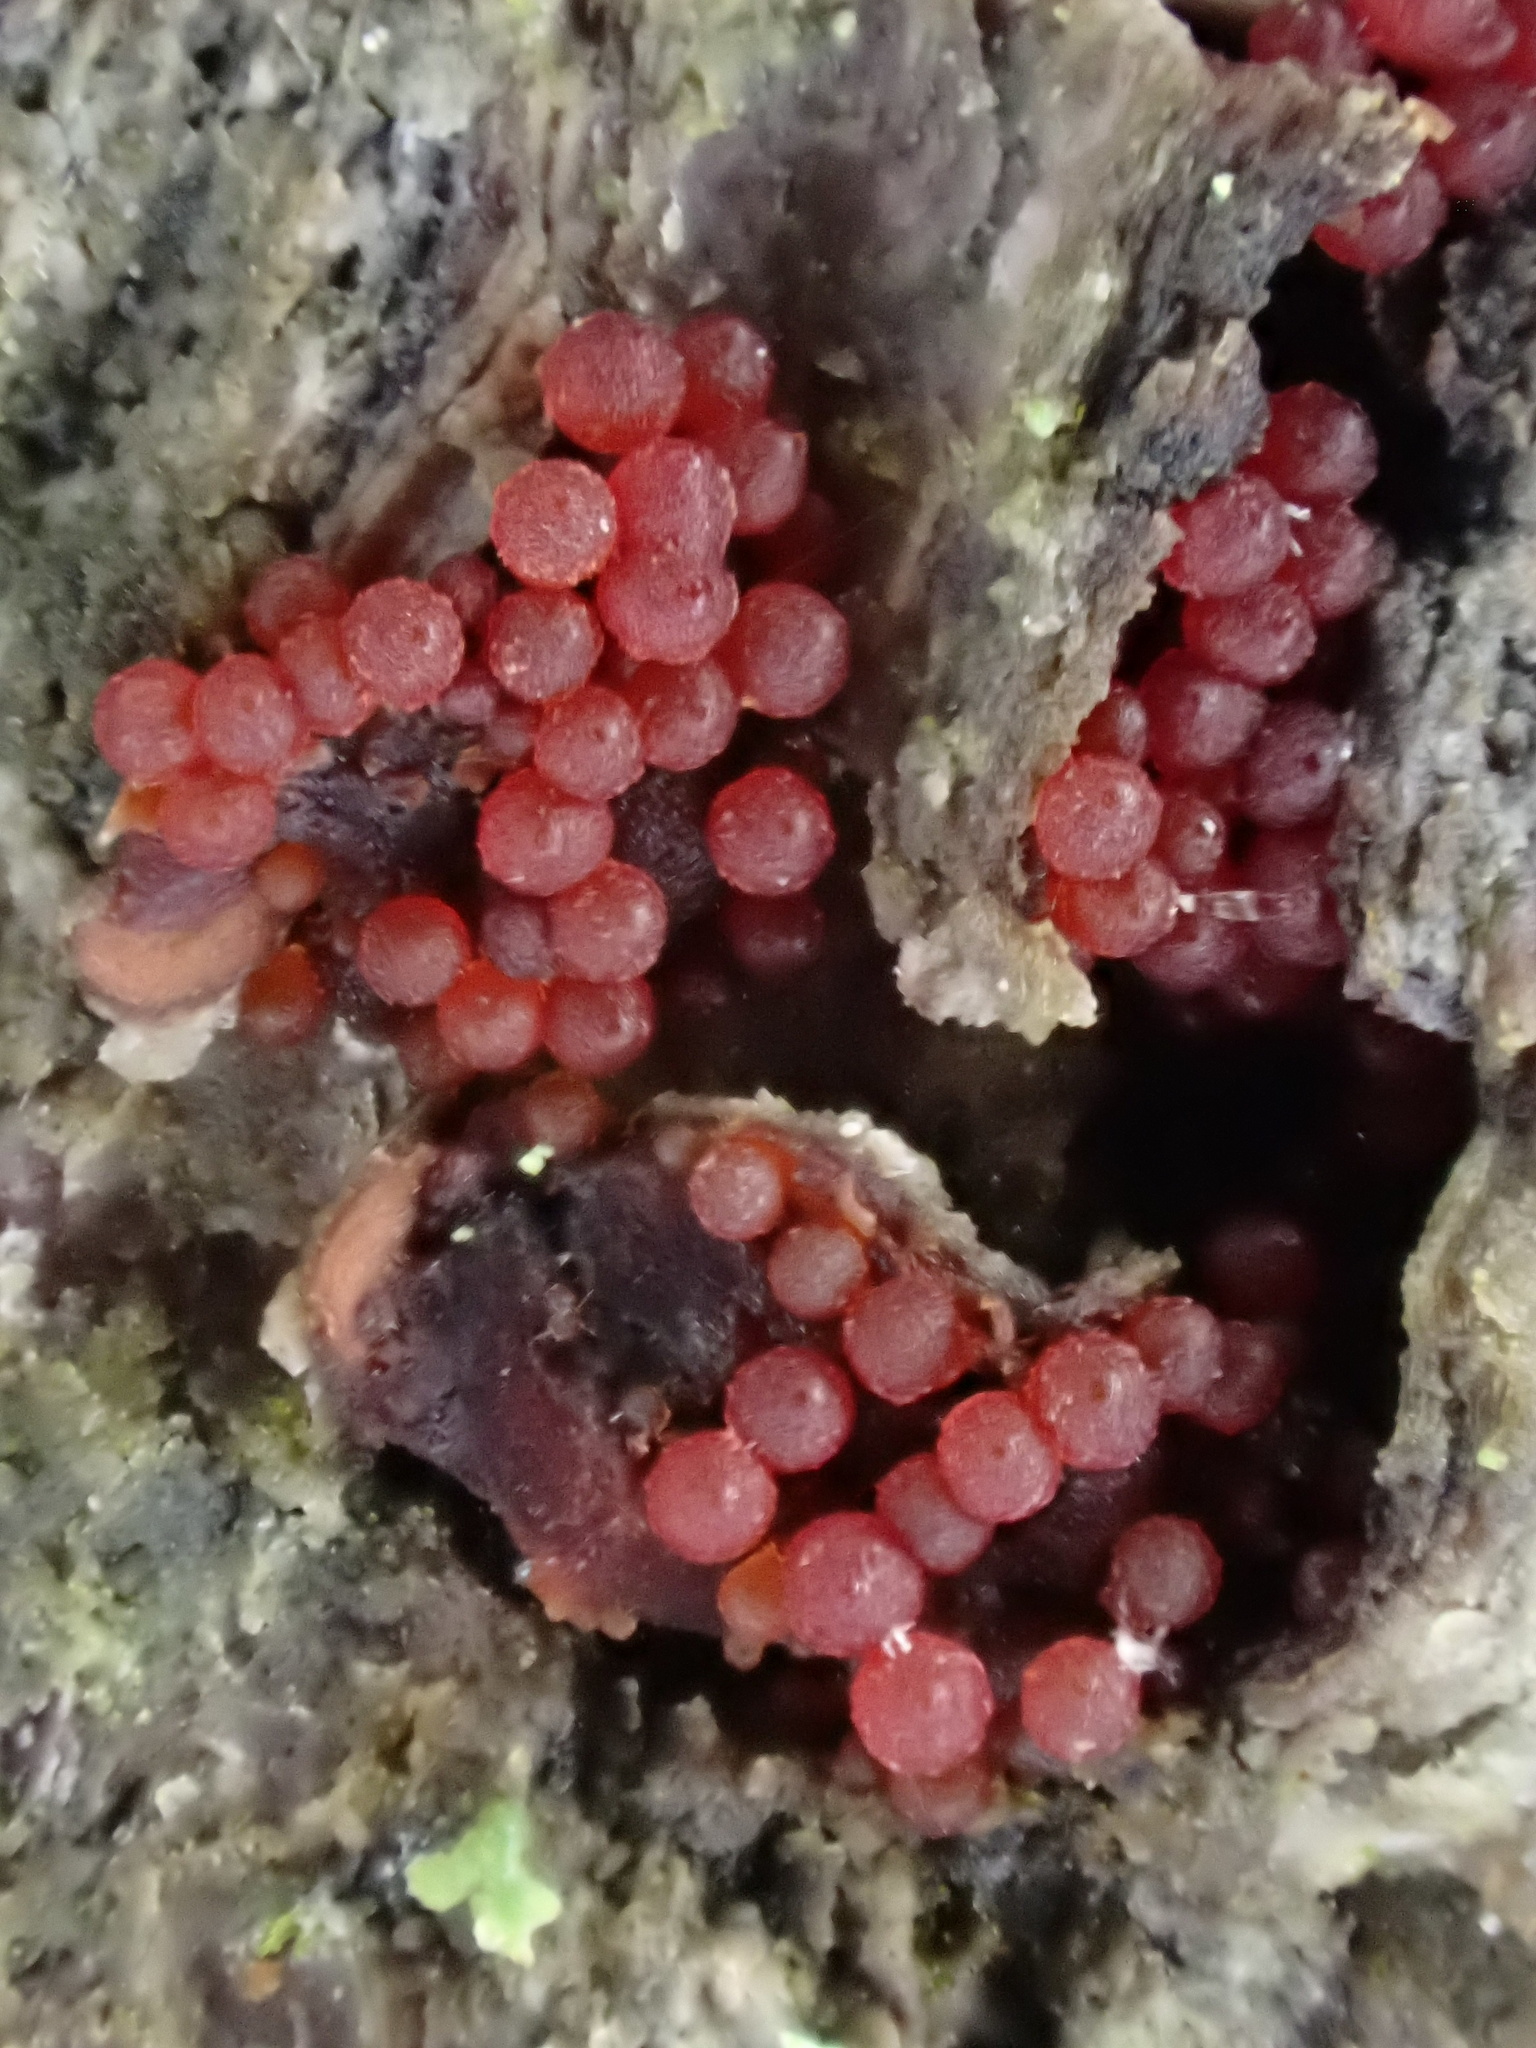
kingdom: Fungi
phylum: Ascomycota
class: Sordariomycetes
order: Hypocreales
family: Nectriaceae
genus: Neonectria
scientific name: Neonectria faginata
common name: Beech bark canker
